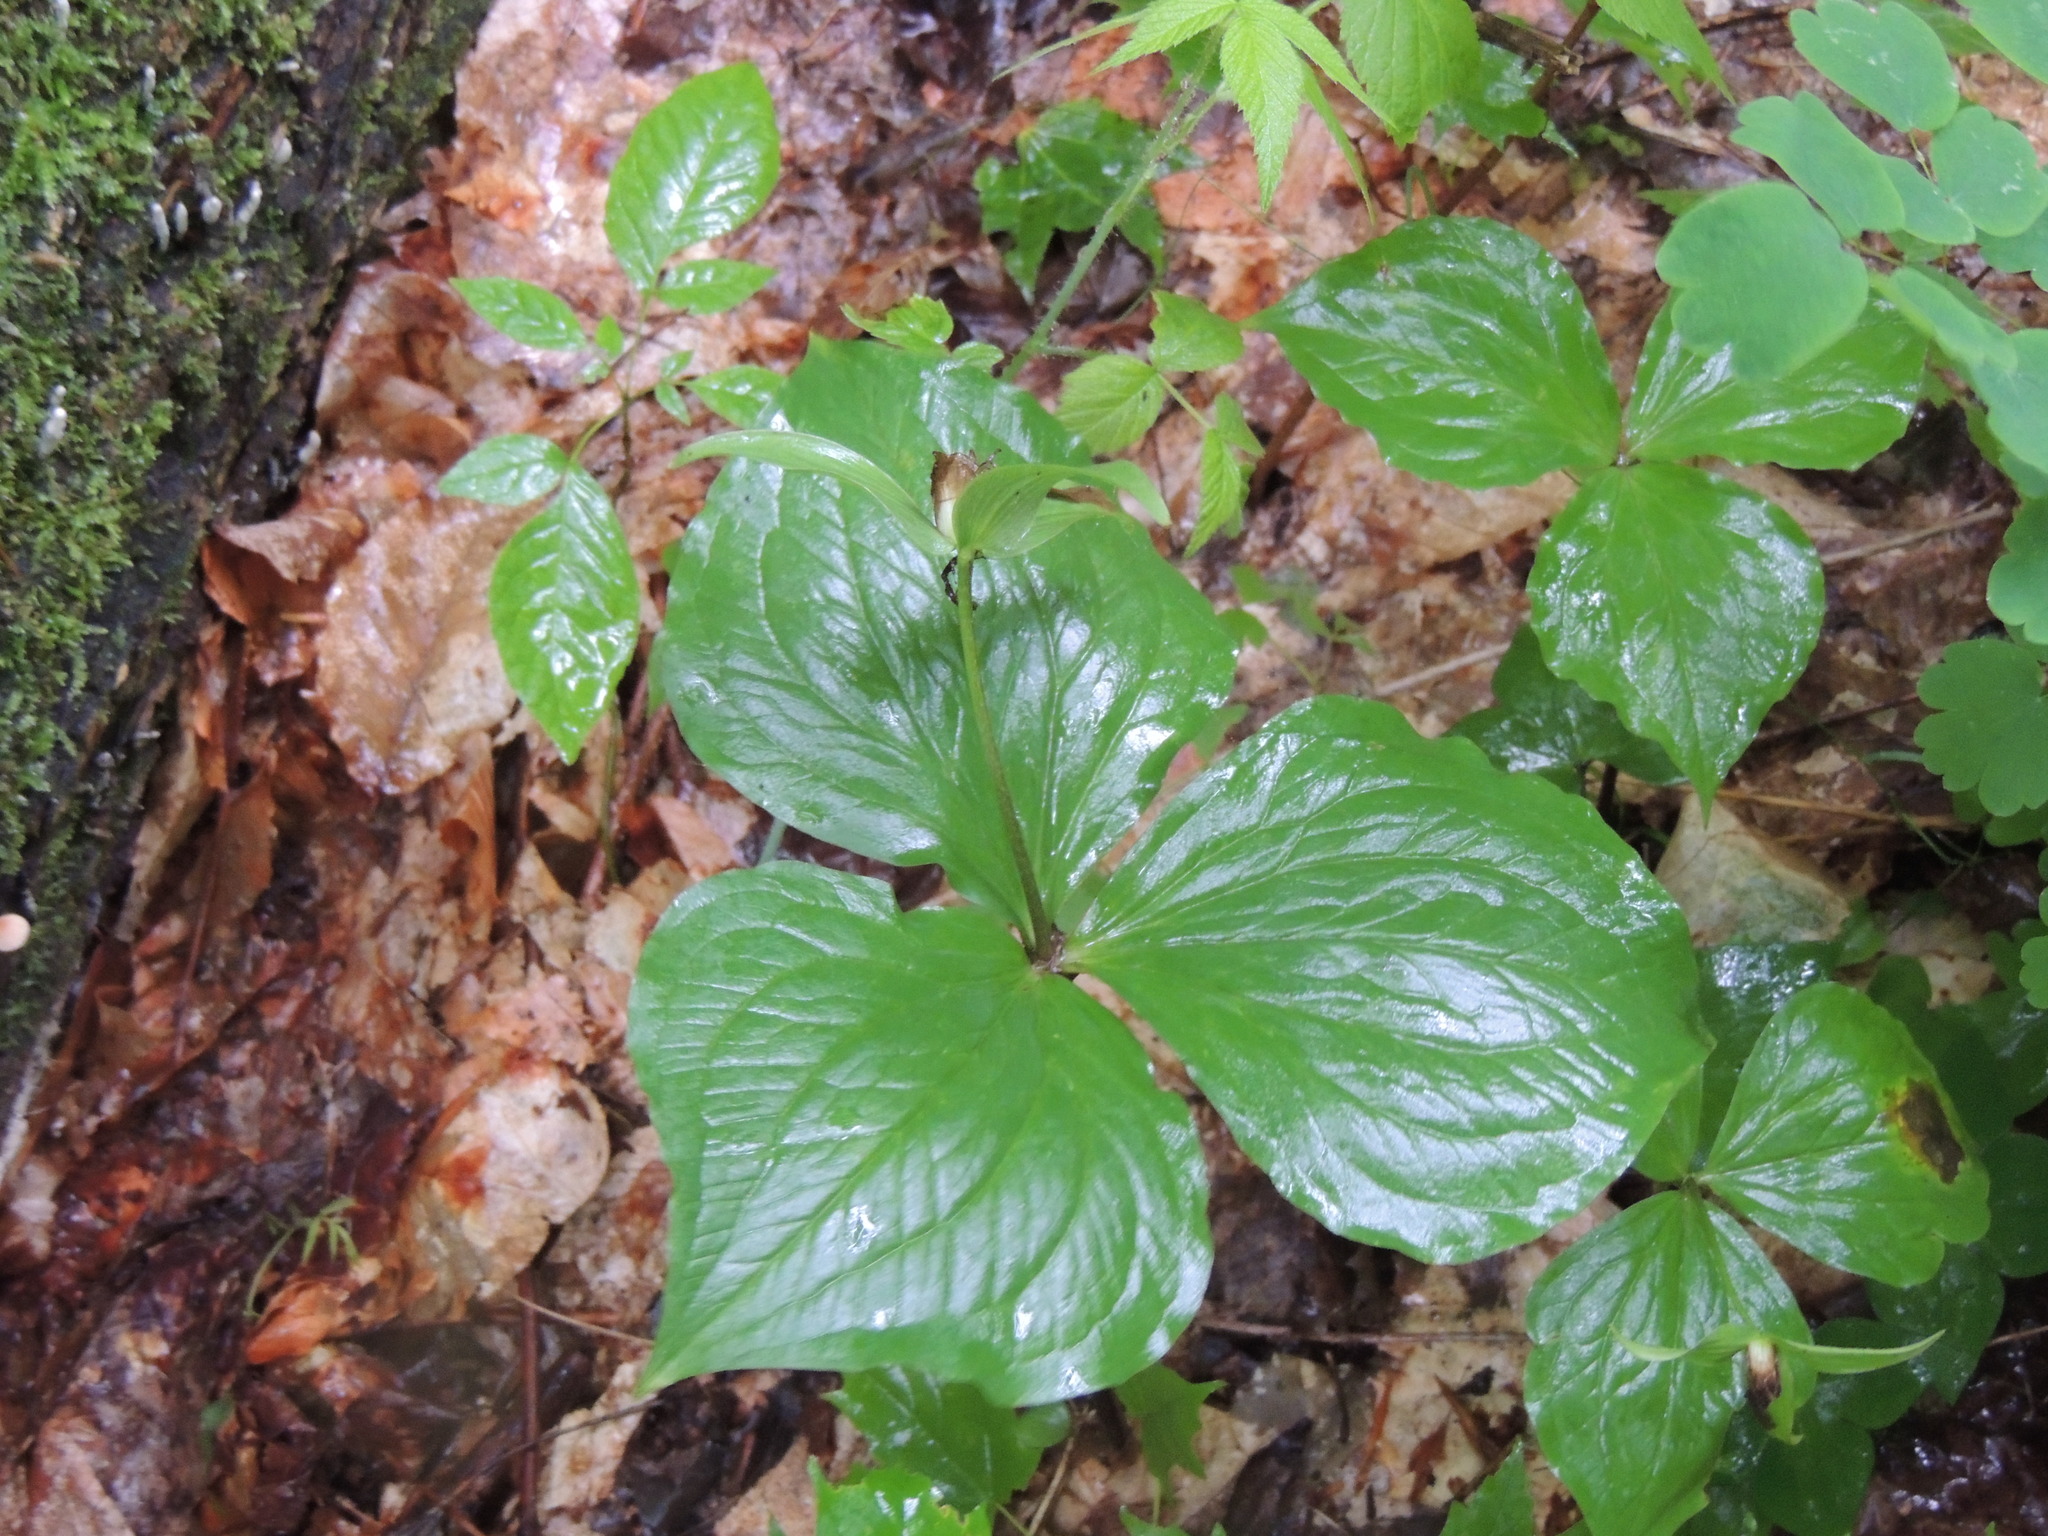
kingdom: Plantae
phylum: Tracheophyta
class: Liliopsida
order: Liliales
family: Melanthiaceae
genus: Trillium
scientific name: Trillium grandiflorum
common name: Great white trillium
